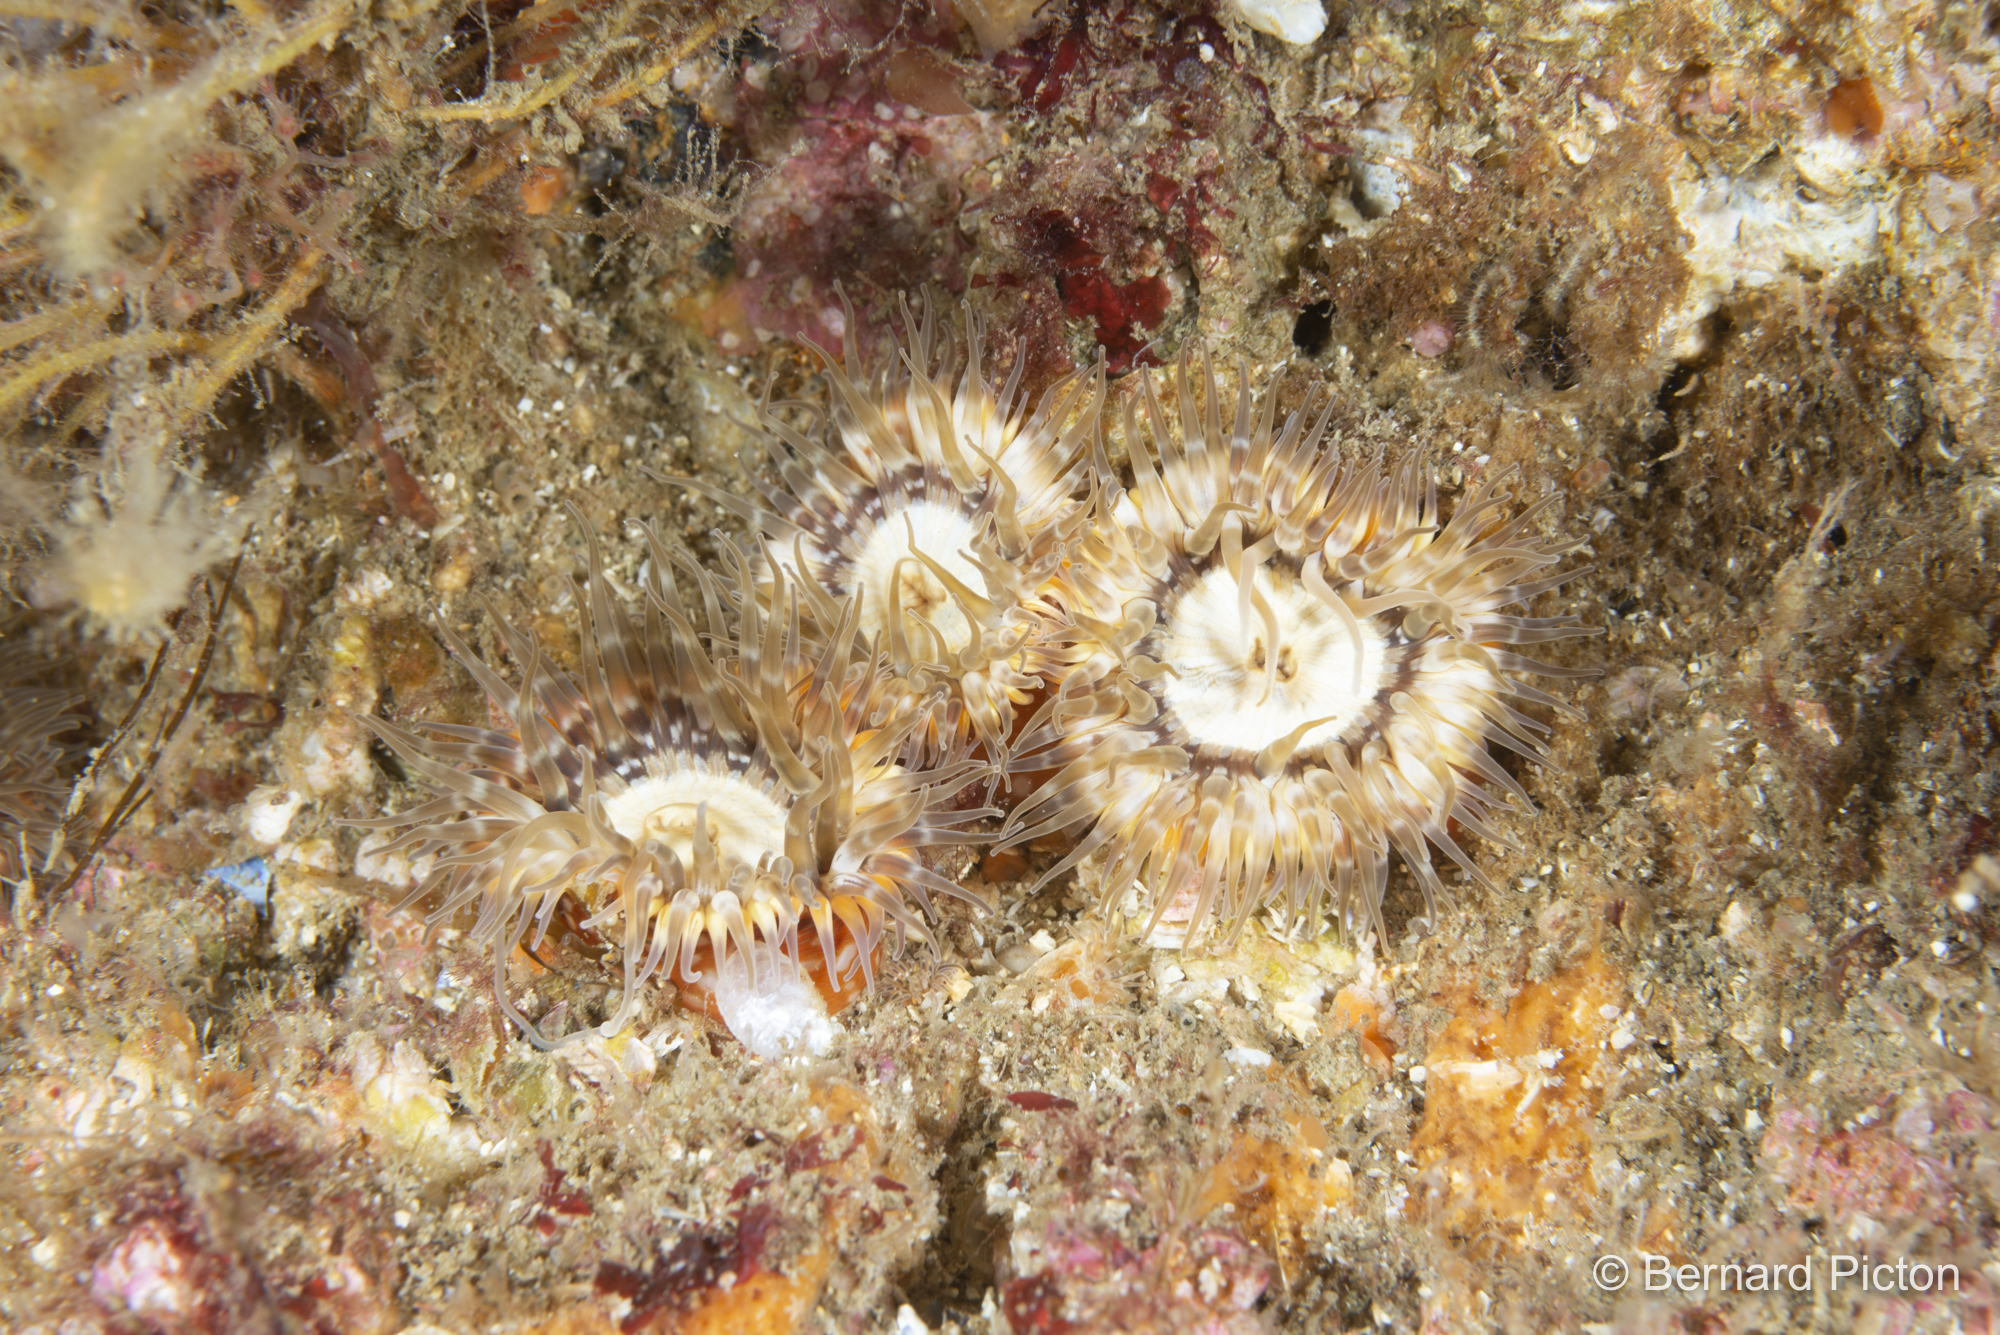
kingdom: Animalia
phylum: Cnidaria
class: Anthozoa
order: Actiniaria
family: Sagartiidae
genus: Cylista
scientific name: Cylista elegans
